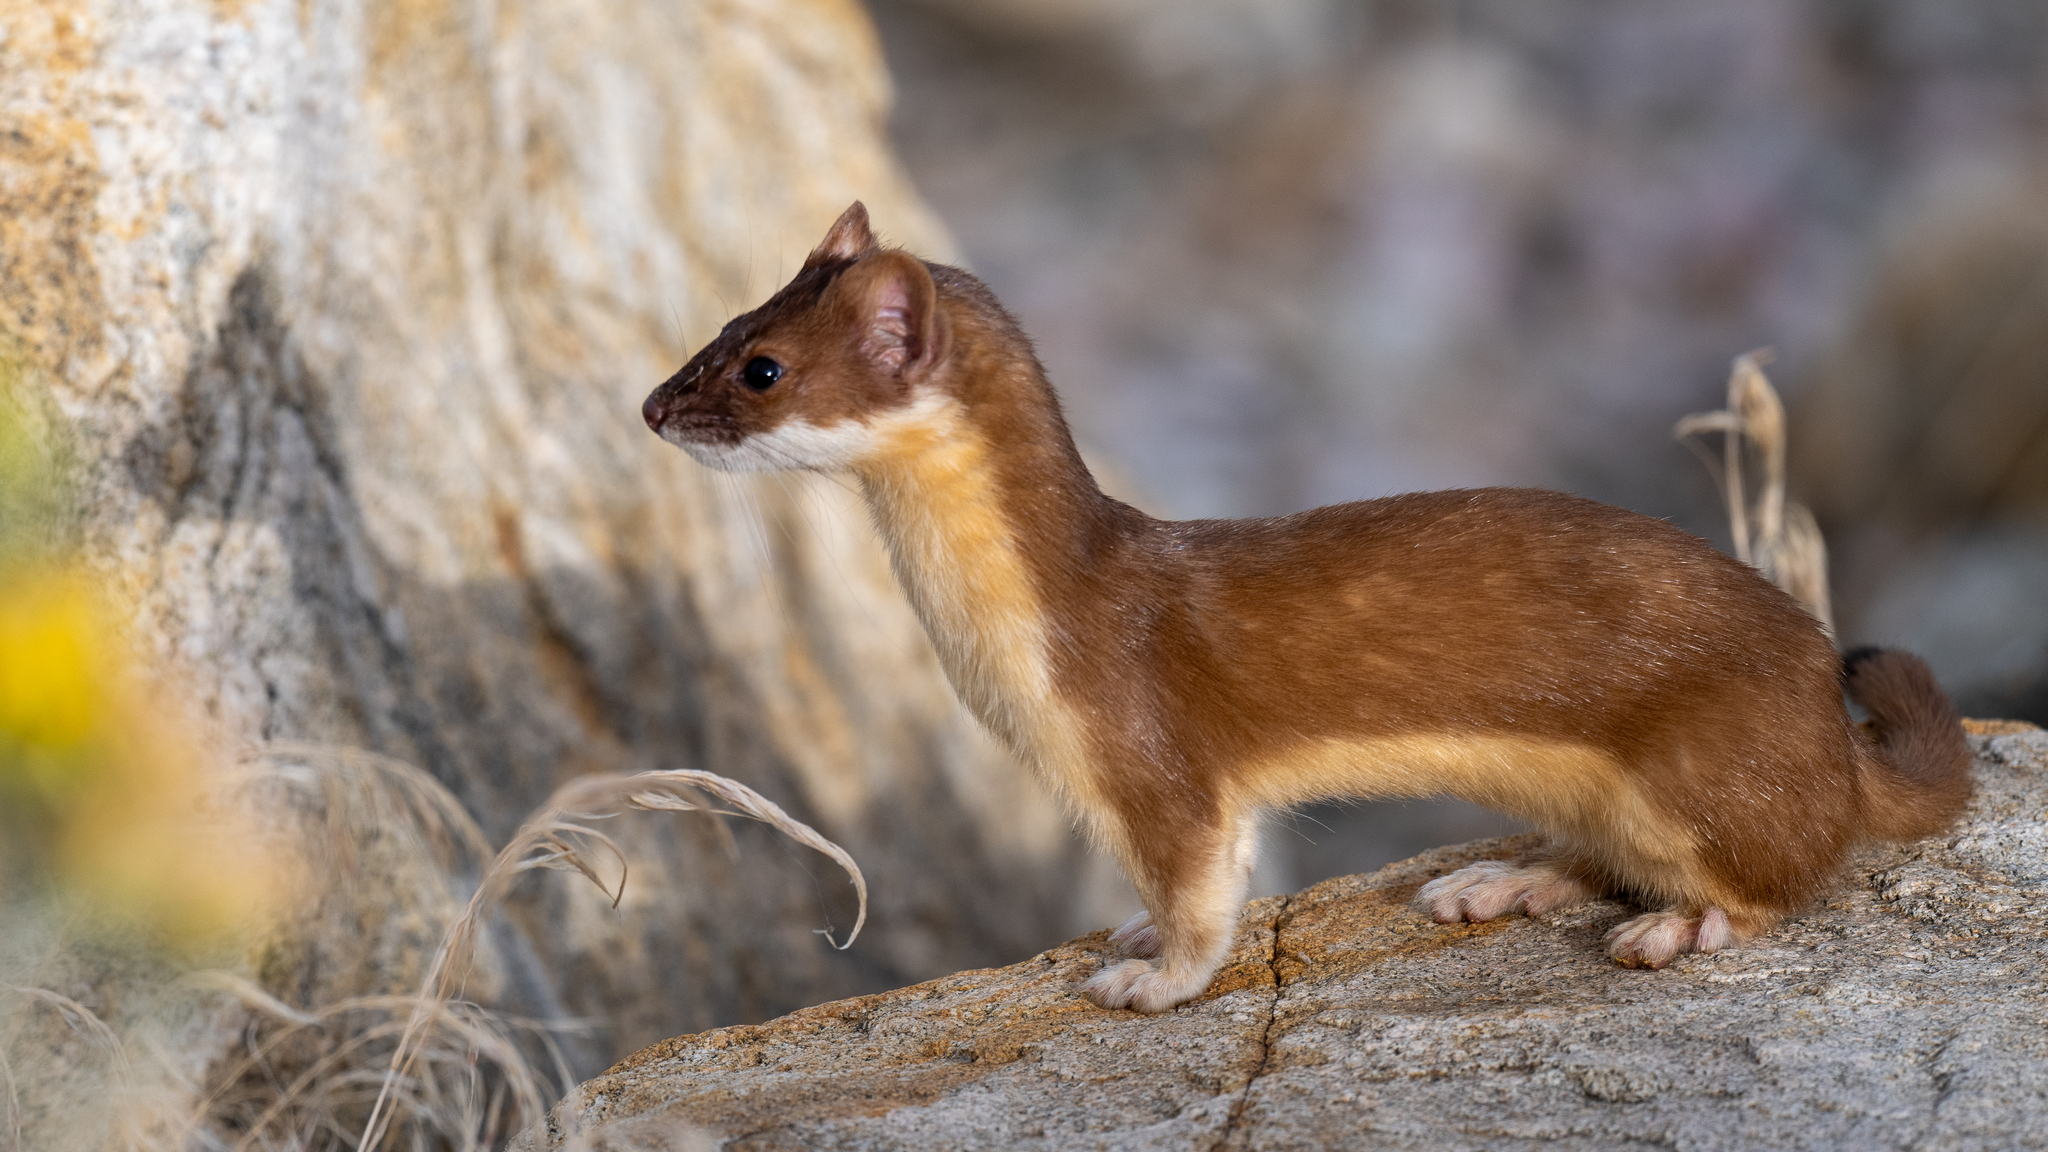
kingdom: Animalia
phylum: Chordata
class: Mammalia
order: Carnivora
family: Mustelidae
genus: Mustela
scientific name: Mustela
